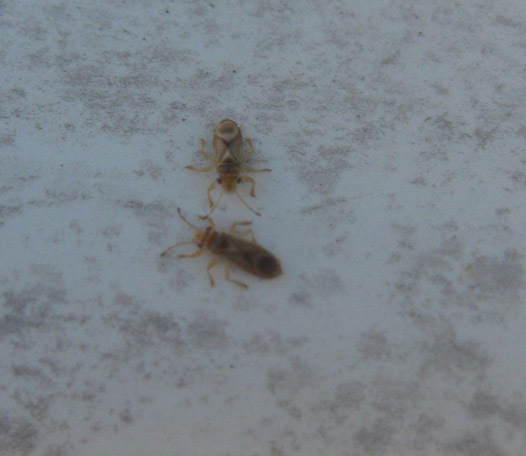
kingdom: Animalia
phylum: Arthropoda
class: Insecta
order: Hemiptera
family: Thaumastocoridae
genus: Thaumastocoris
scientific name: Thaumastocoris peregrinus
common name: Bronze bug
